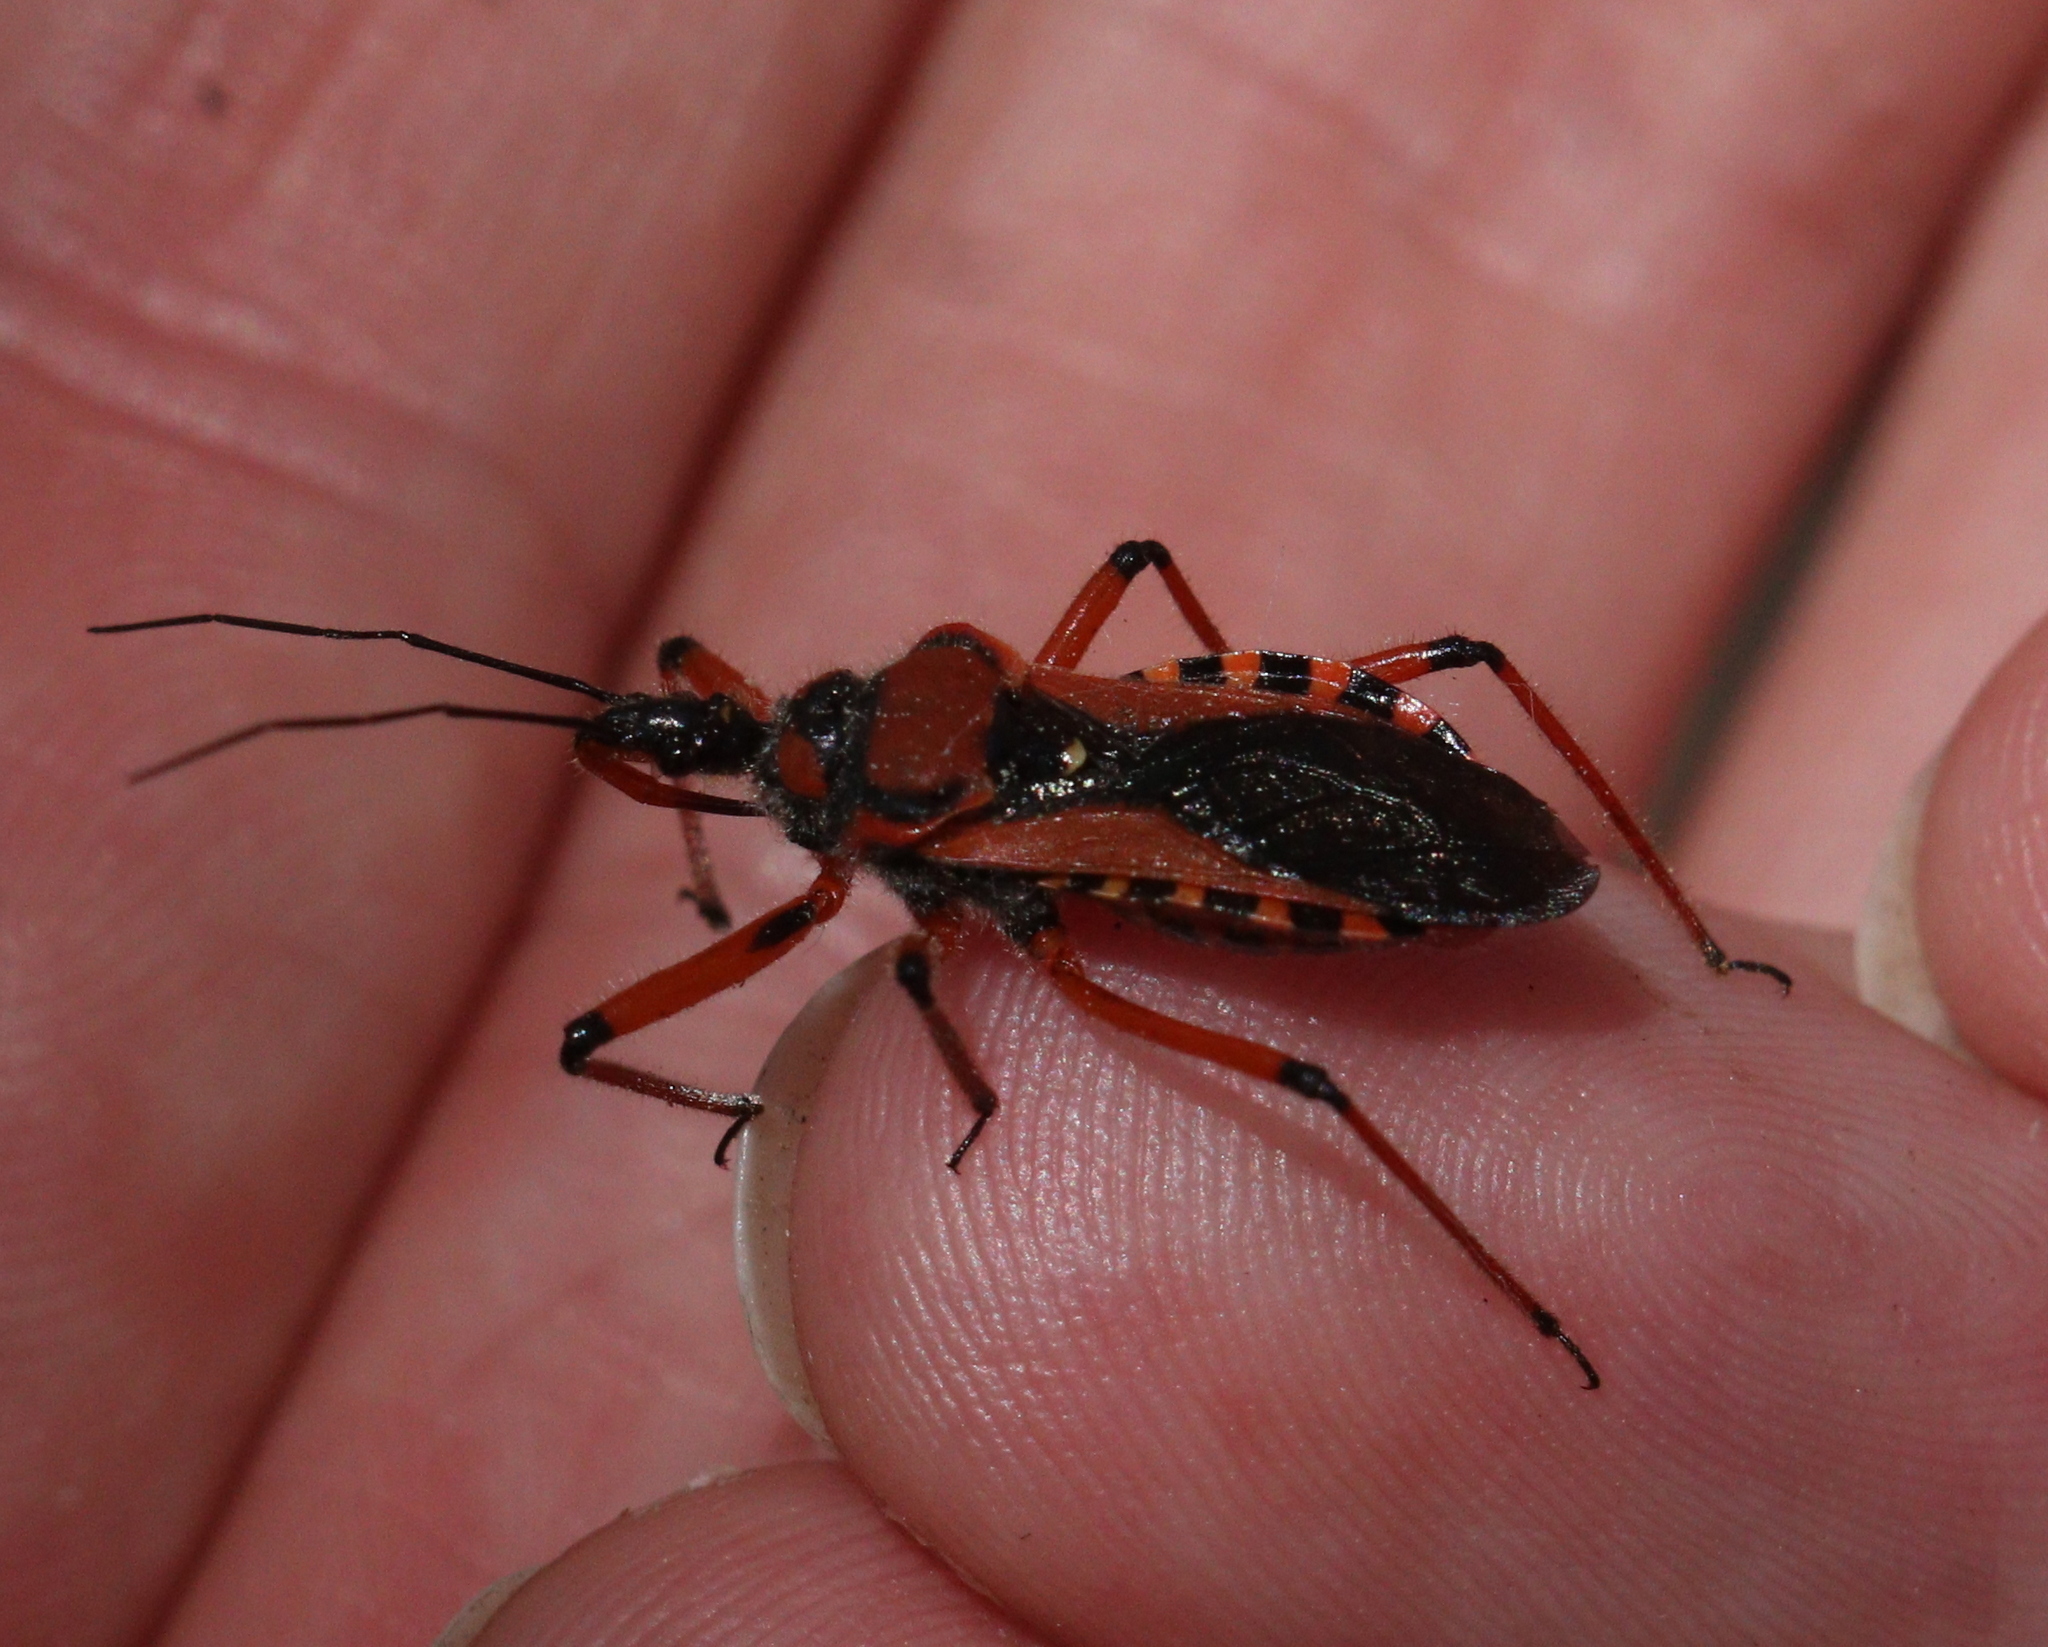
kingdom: Animalia
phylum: Arthropoda
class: Insecta
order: Hemiptera
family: Reduviidae
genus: Rhynocoris
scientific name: Rhynocoris iracundus
